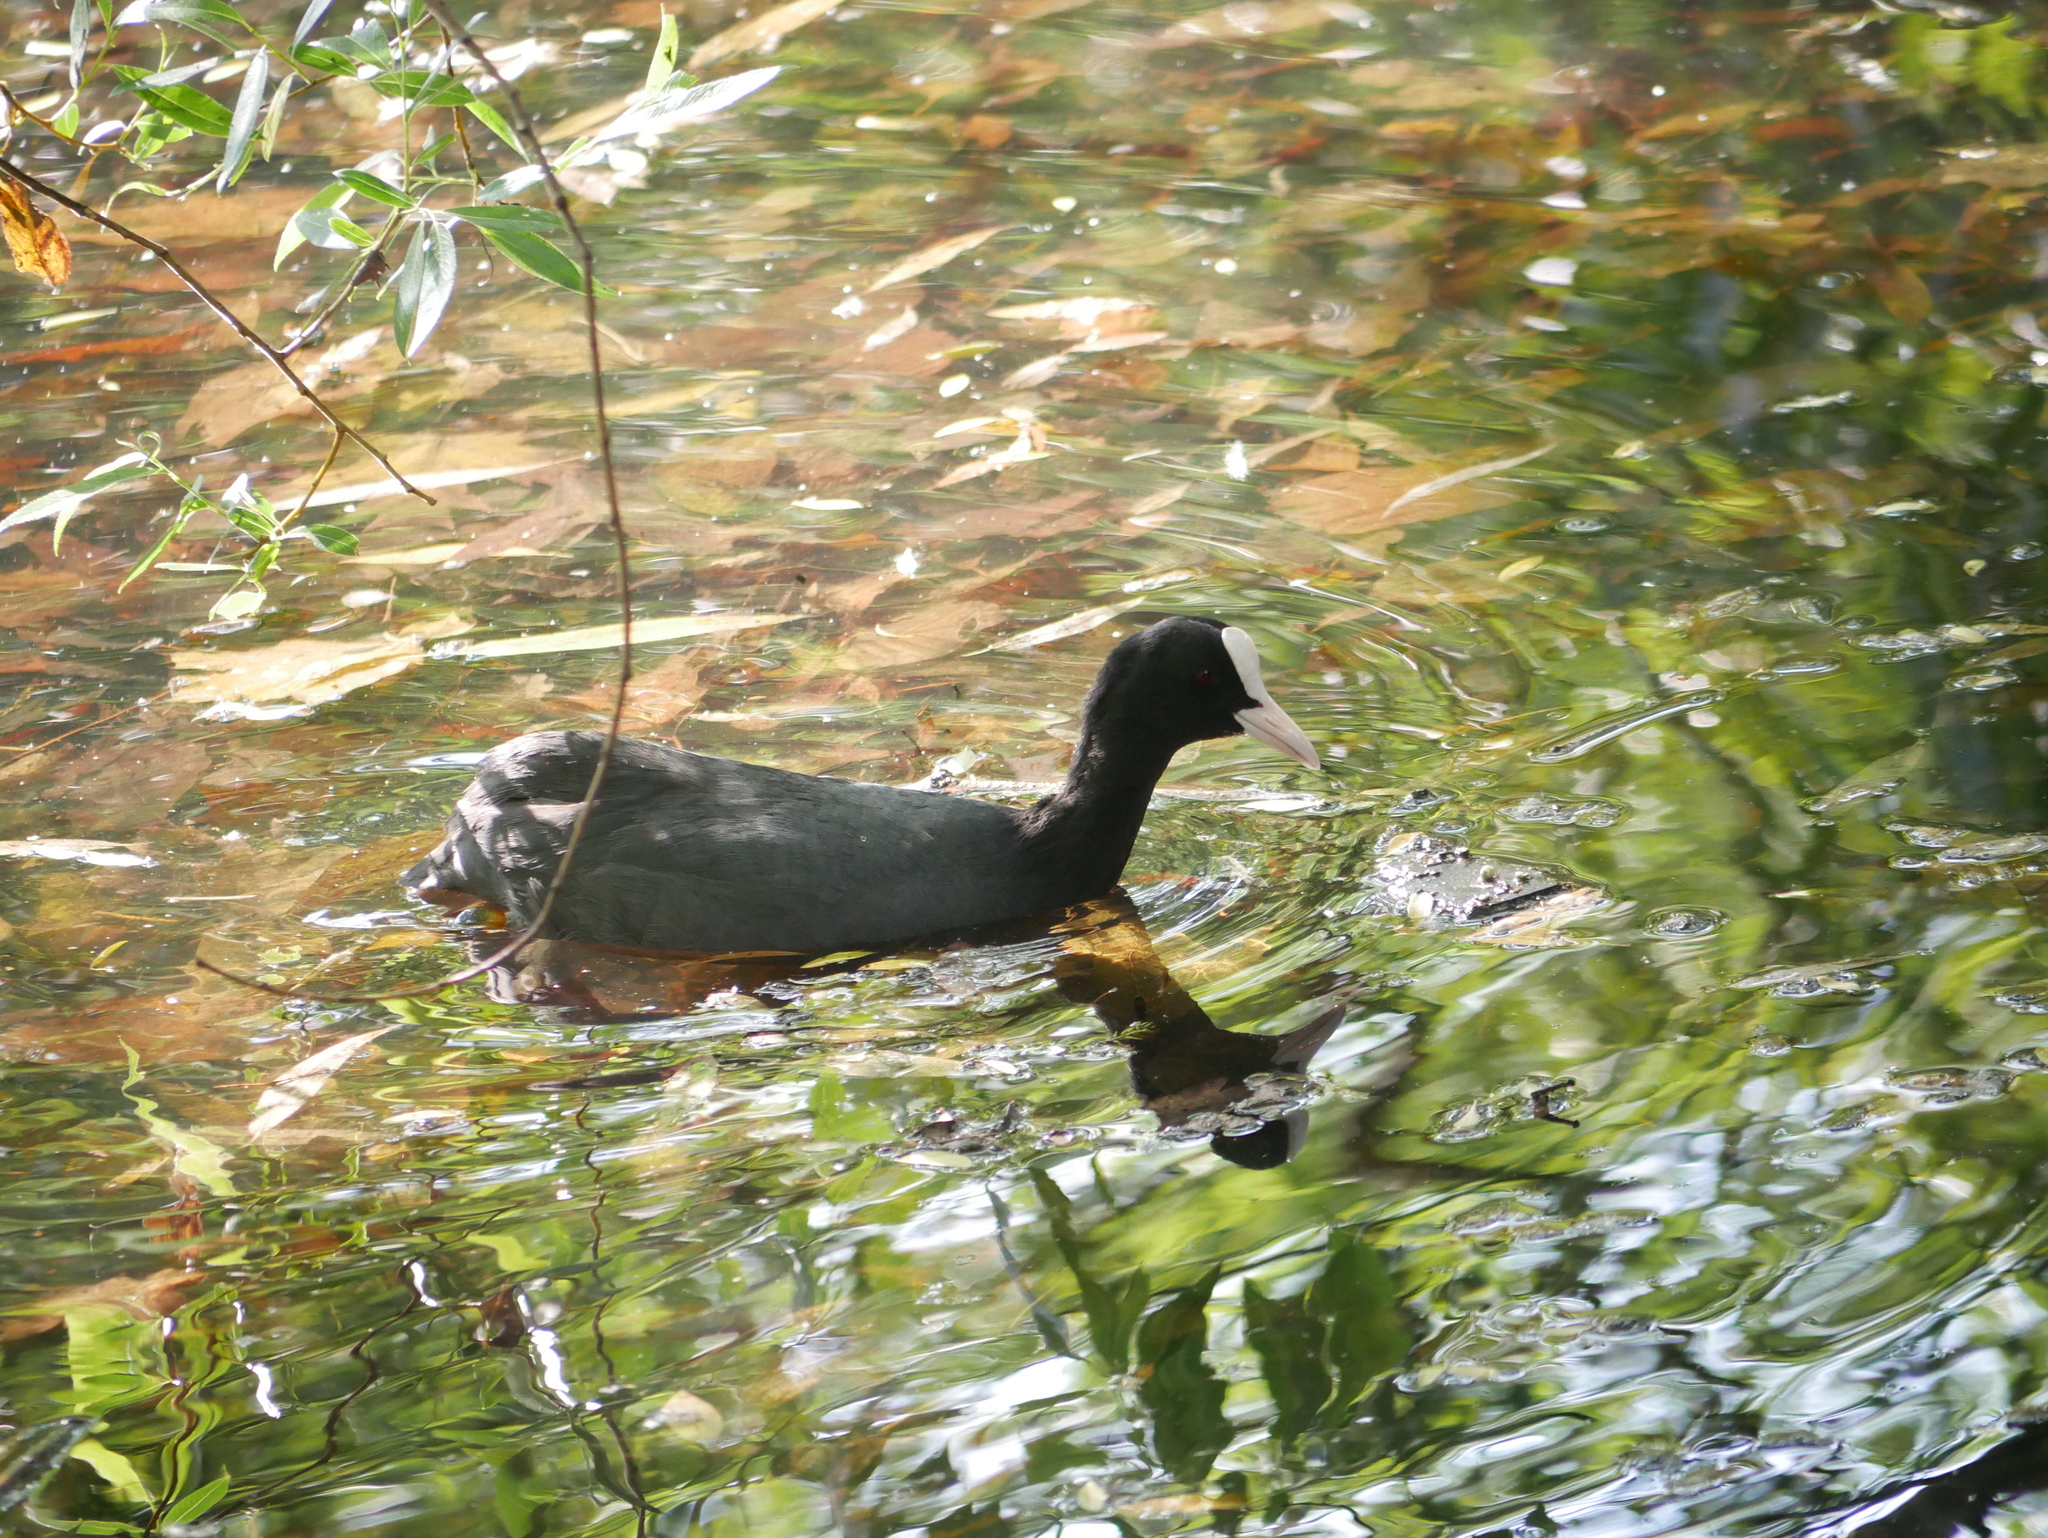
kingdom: Animalia
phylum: Chordata
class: Aves
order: Gruiformes
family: Rallidae
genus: Fulica
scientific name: Fulica atra
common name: Eurasian coot
